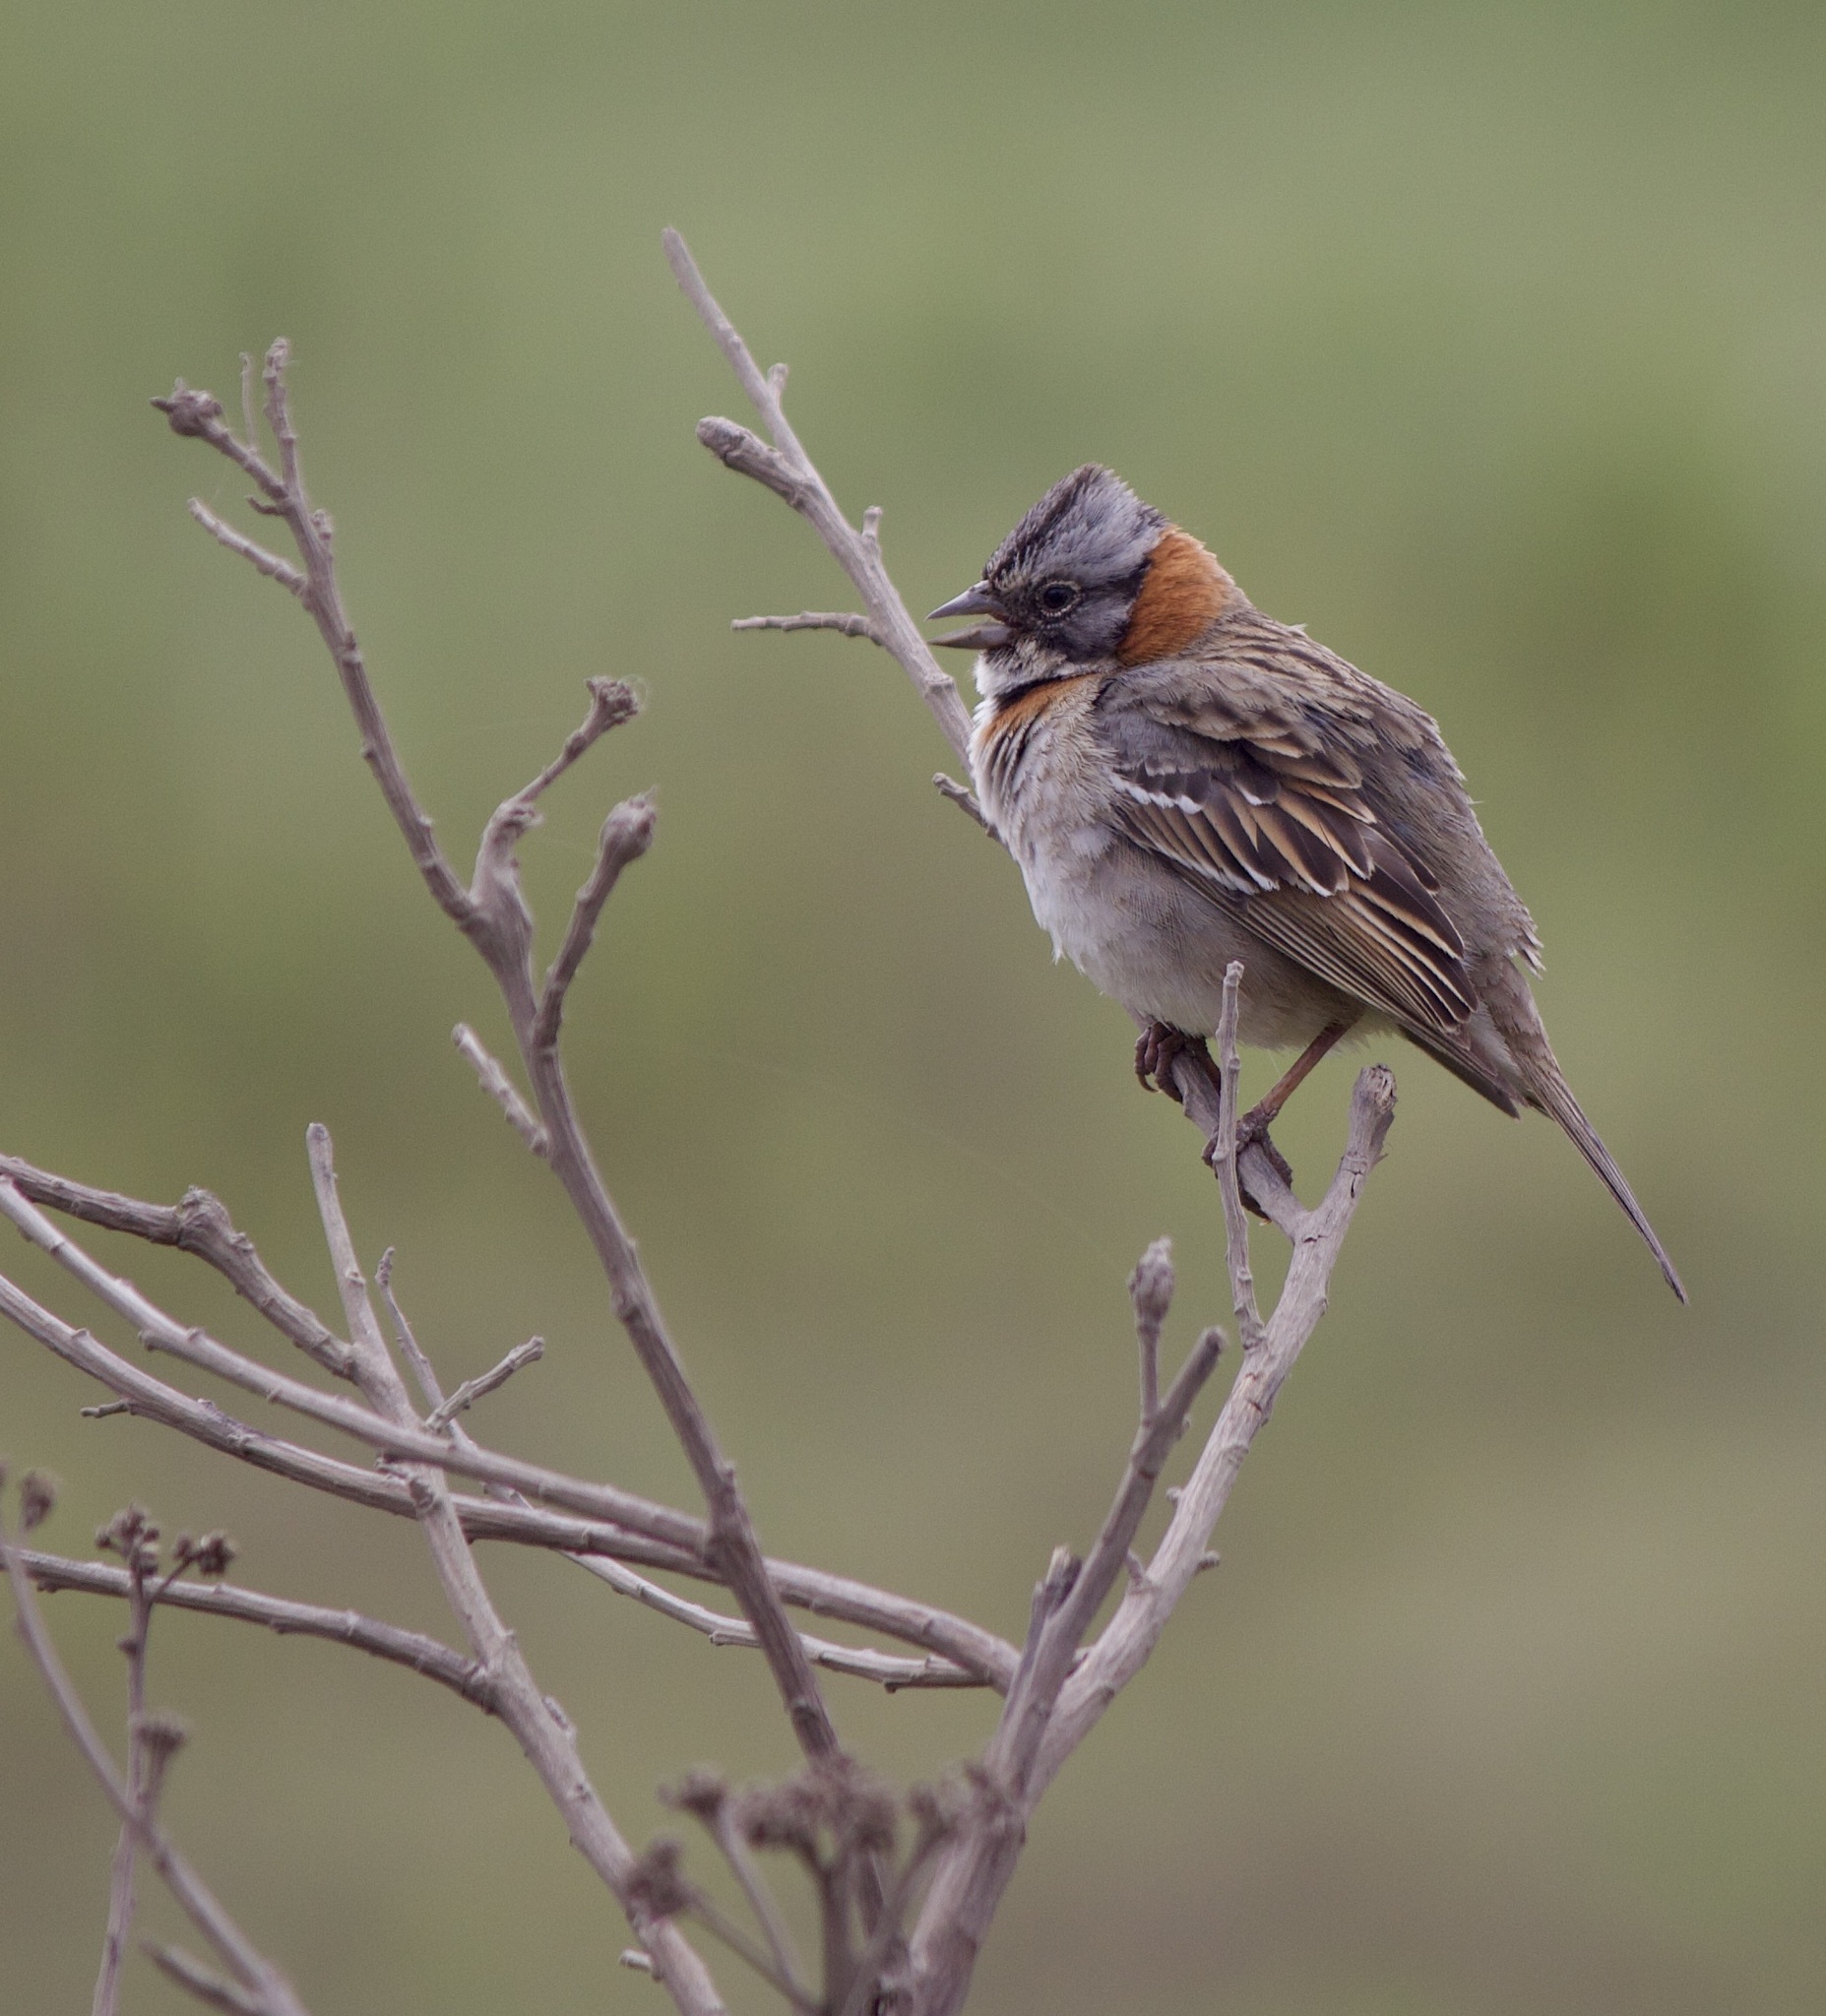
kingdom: Animalia
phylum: Chordata
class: Aves
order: Passeriformes
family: Passerellidae
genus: Zonotrichia
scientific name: Zonotrichia capensis
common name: Rufous-collared sparrow
